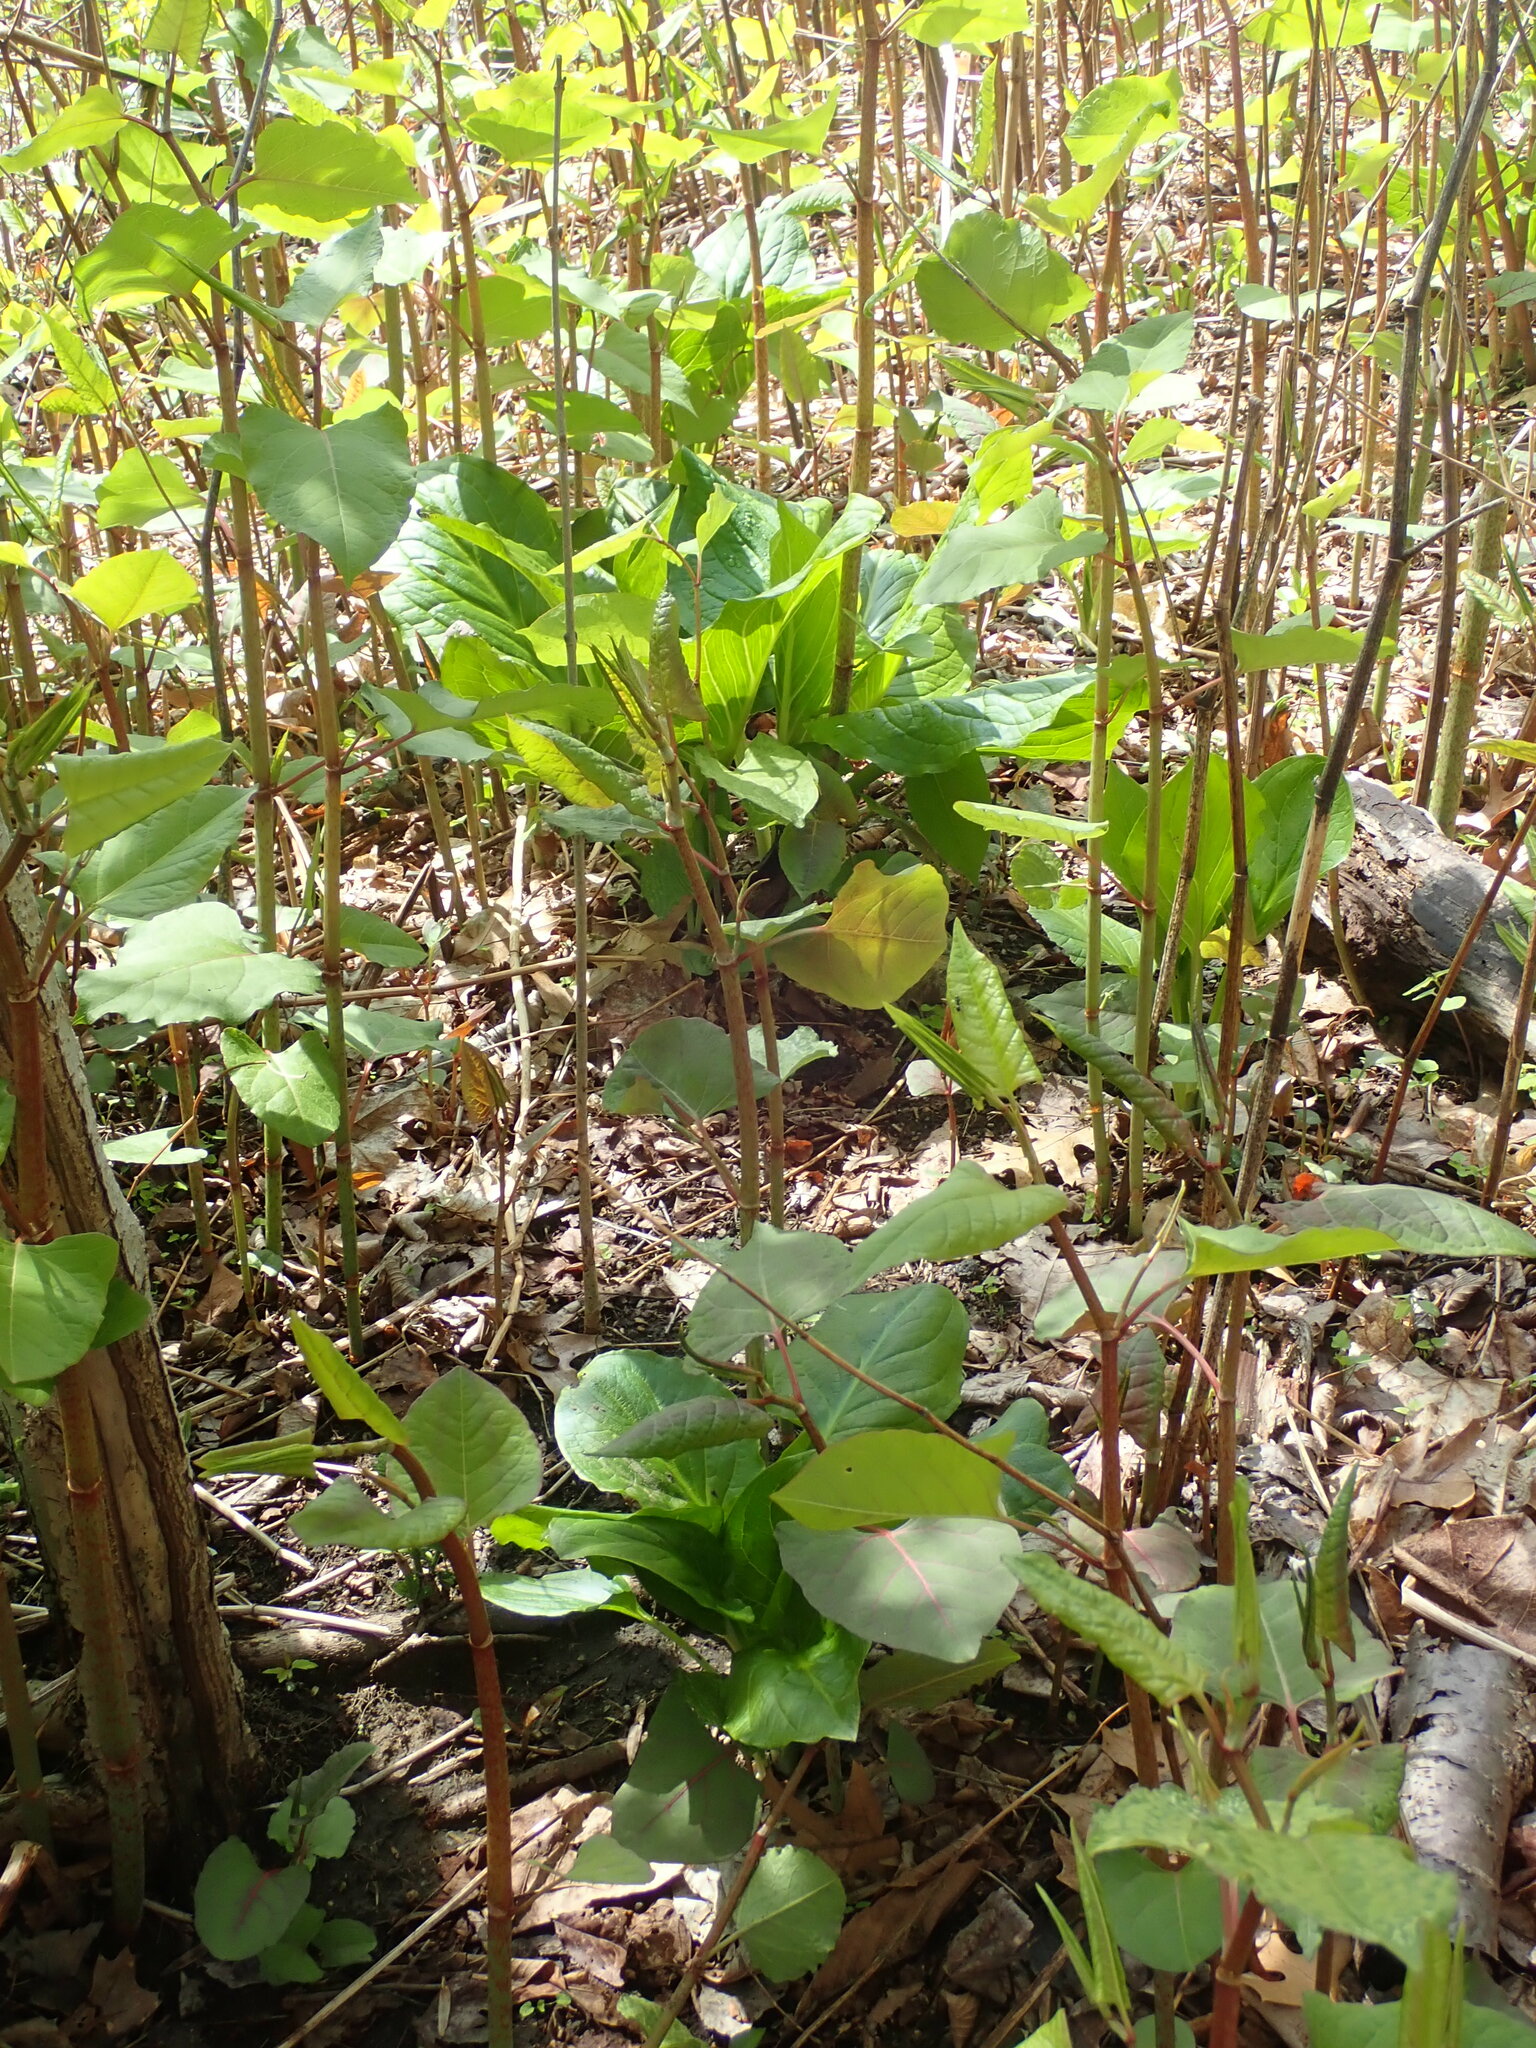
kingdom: Plantae
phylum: Tracheophyta
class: Magnoliopsida
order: Caryophyllales
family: Polygonaceae
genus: Reynoutria
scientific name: Reynoutria japonica
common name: Japanese knotweed
